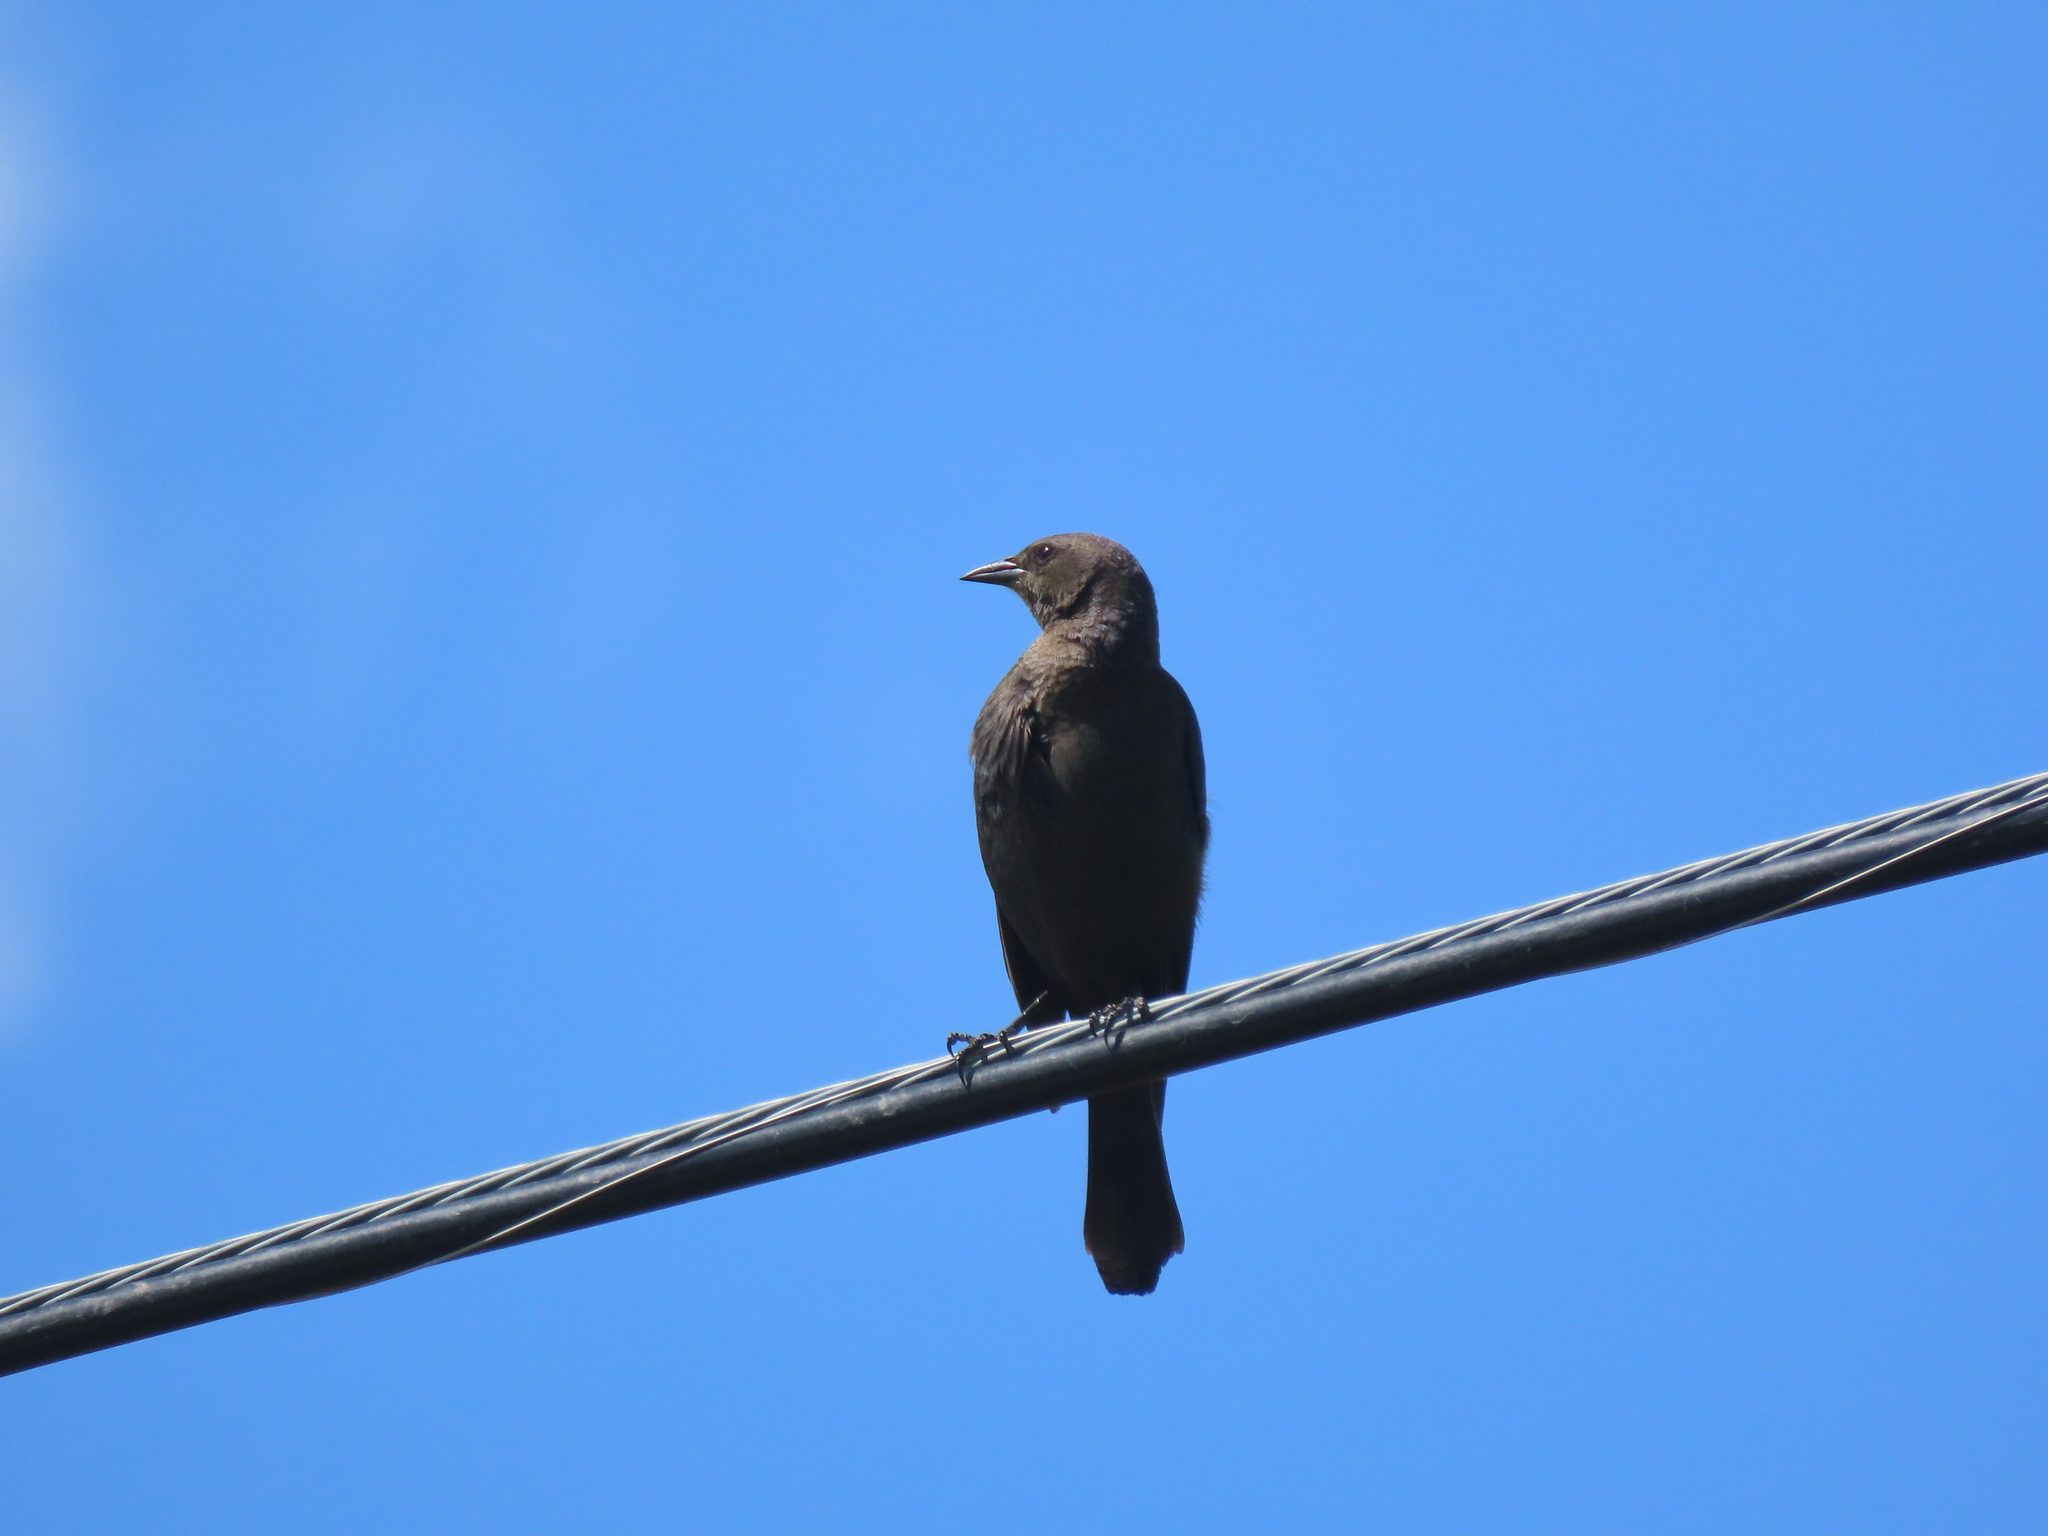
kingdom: Animalia
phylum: Chordata
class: Aves
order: Passeriformes
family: Icteridae
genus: Euphagus
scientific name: Euphagus cyanocephalus
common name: Brewer's blackbird
